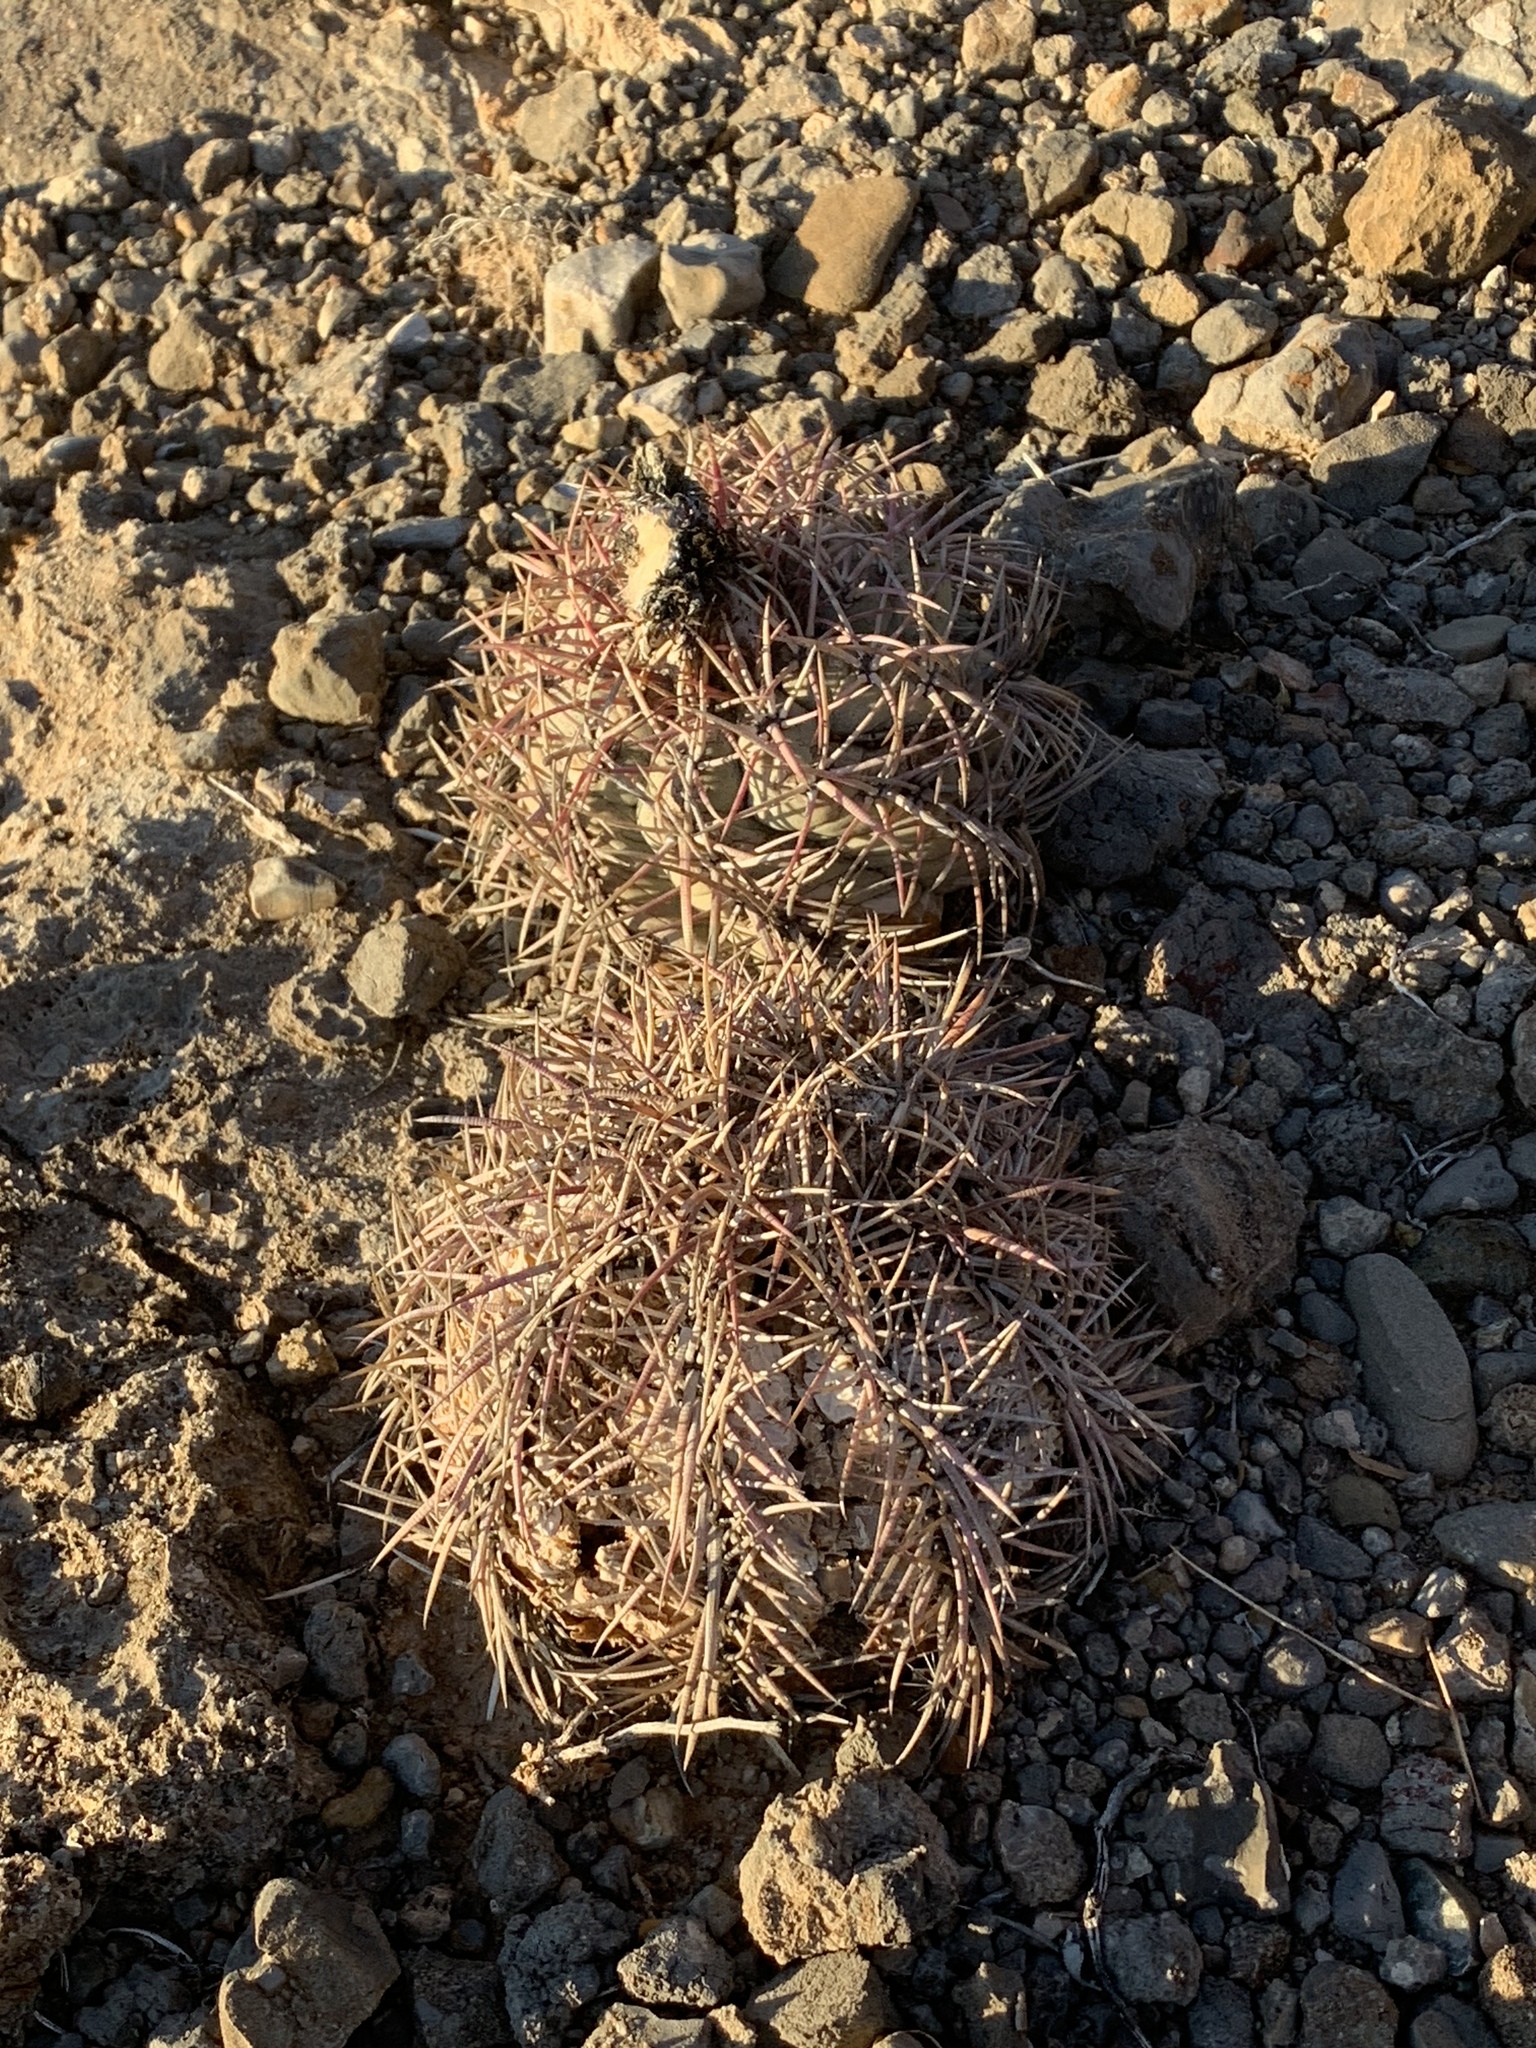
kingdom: Plantae
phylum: Tracheophyta
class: Magnoliopsida
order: Caryophyllales
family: Cactaceae
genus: Echinocactus
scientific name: Echinocactus horizonthalonius
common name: Devilshead
